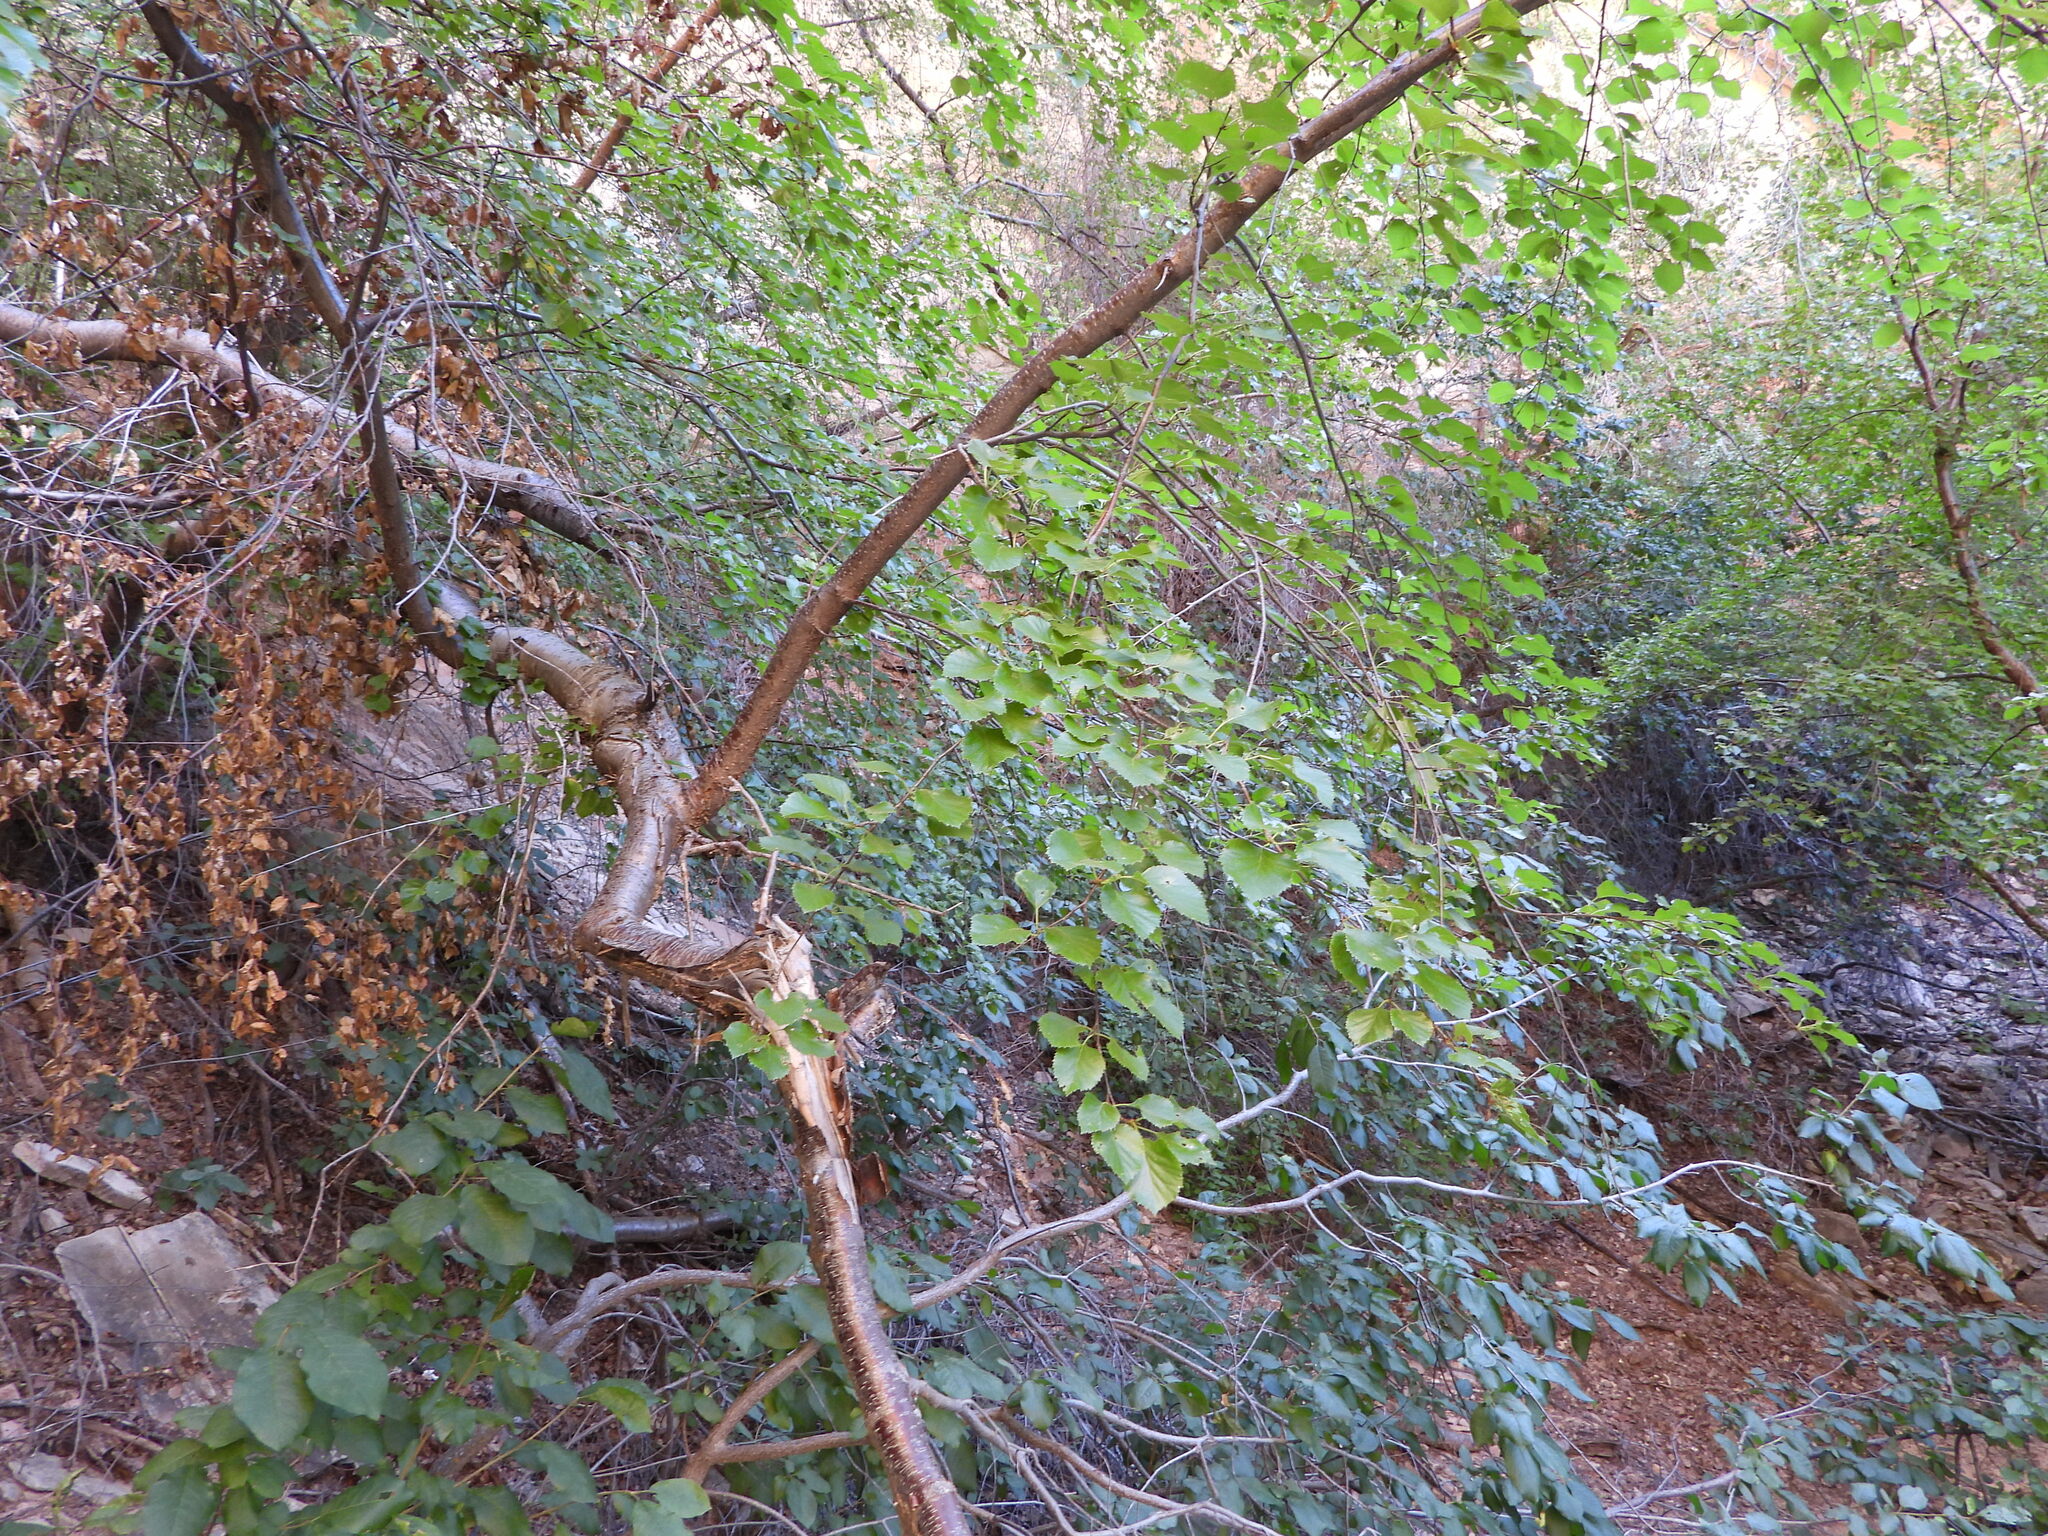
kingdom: Plantae
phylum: Tracheophyta
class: Magnoliopsida
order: Fagales
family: Betulaceae
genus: Betula
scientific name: Betula occidentalis
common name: River birch
